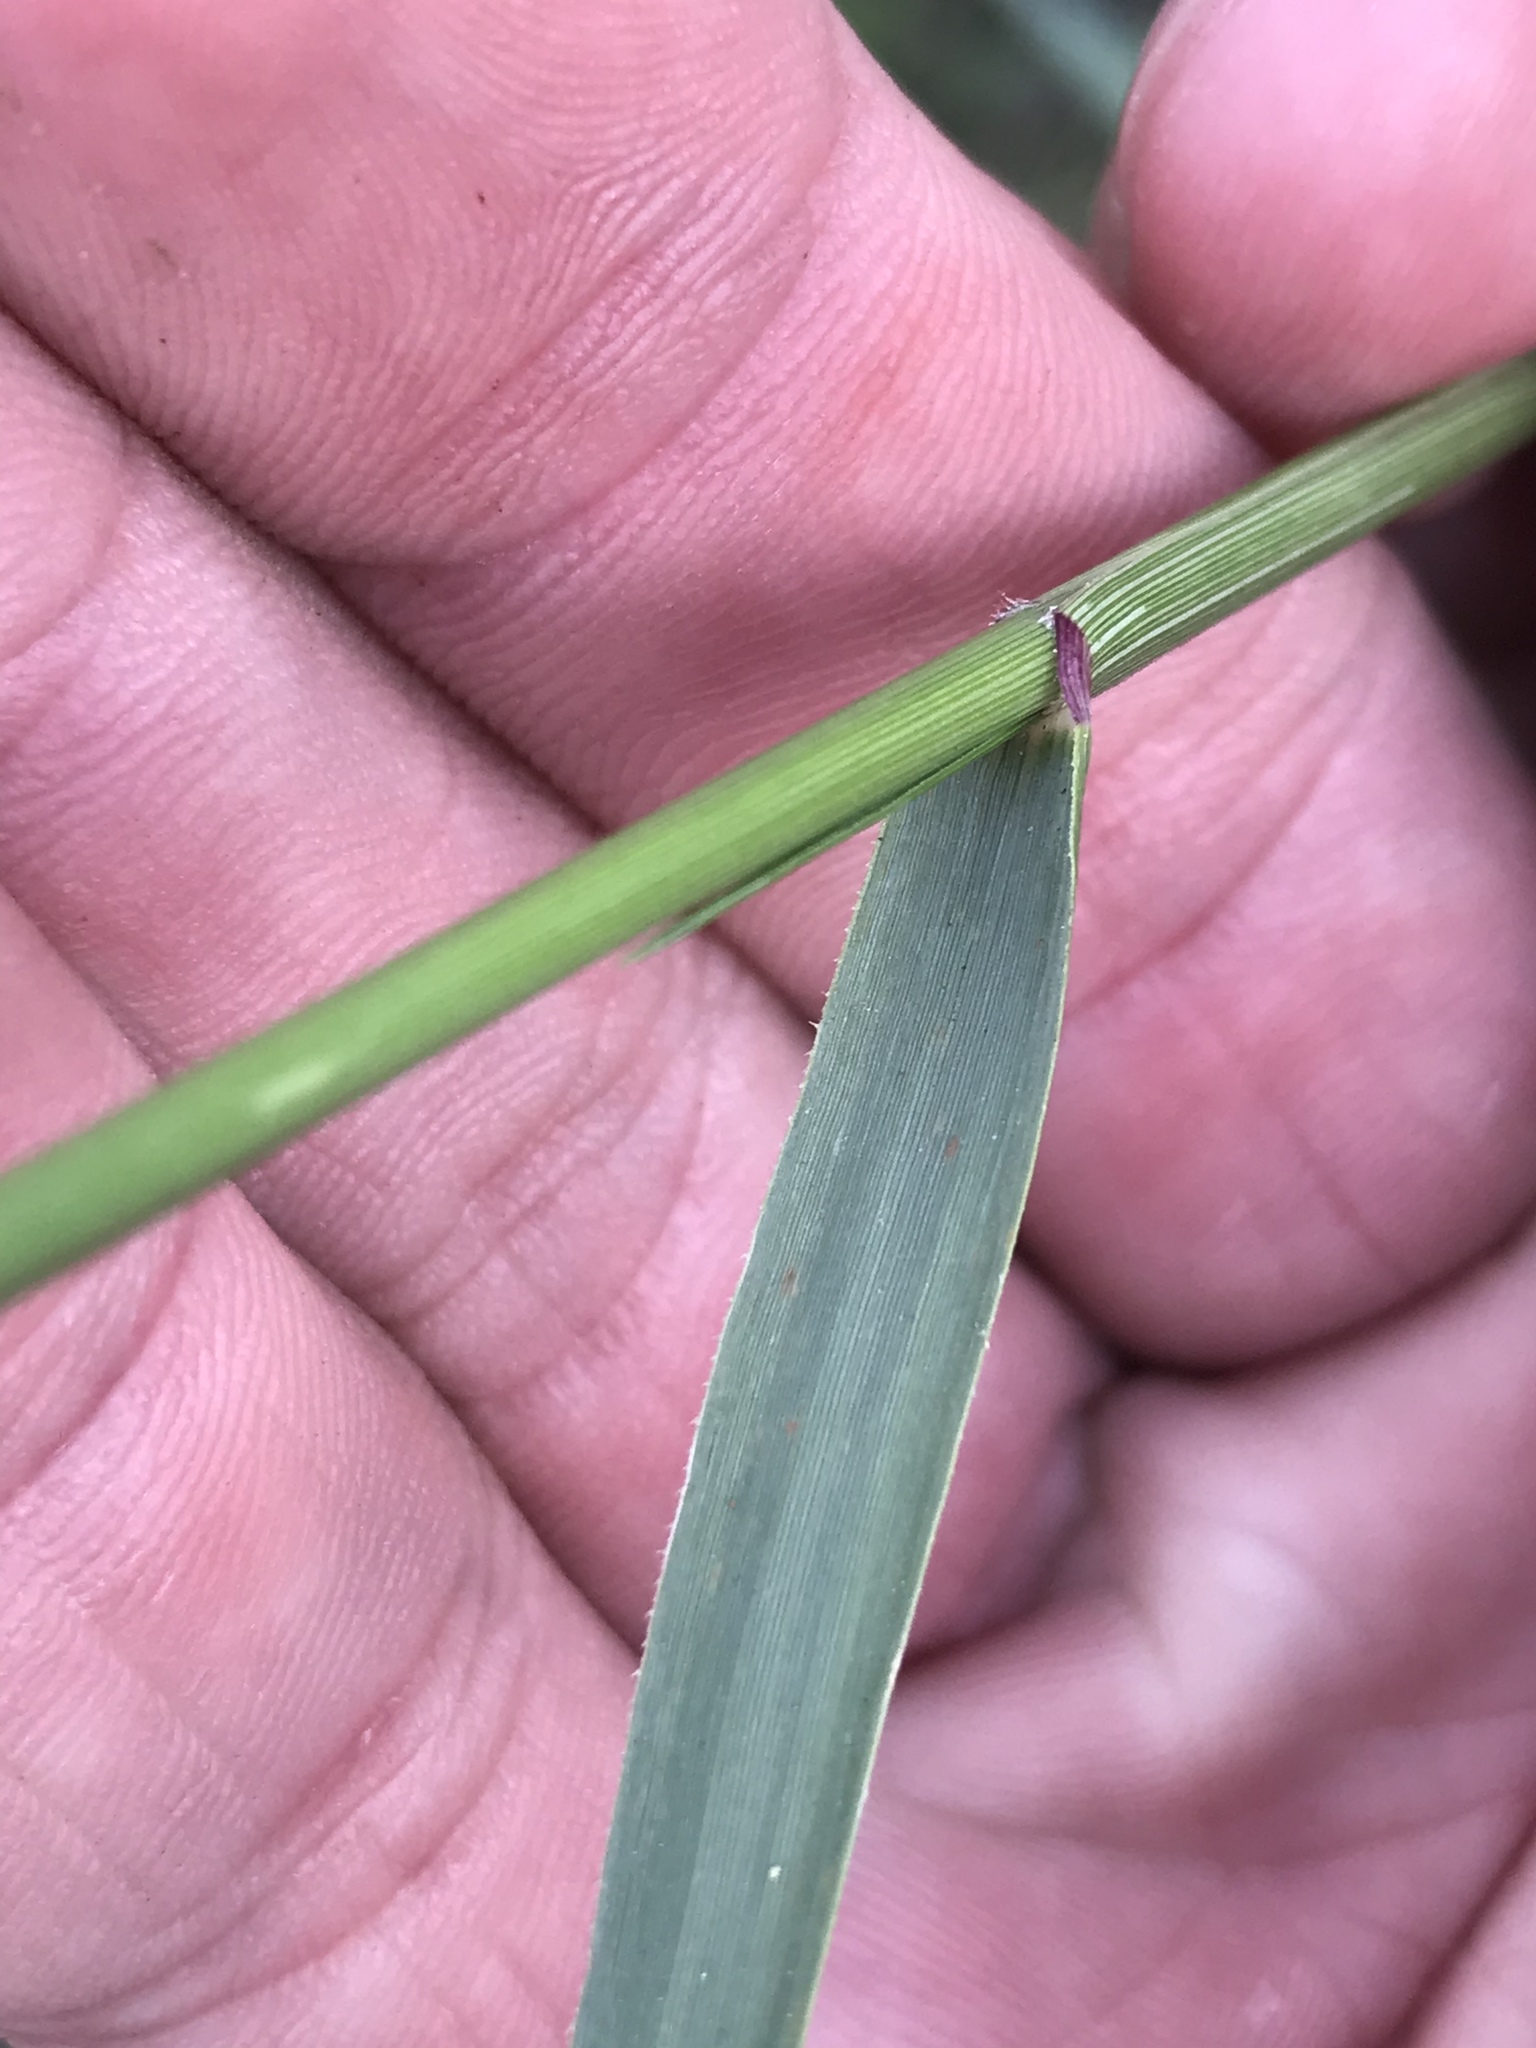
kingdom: Plantae
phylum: Tracheophyta
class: Liliopsida
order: Poales
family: Poaceae
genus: Tridens
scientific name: Tridens albescens
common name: White tridens
